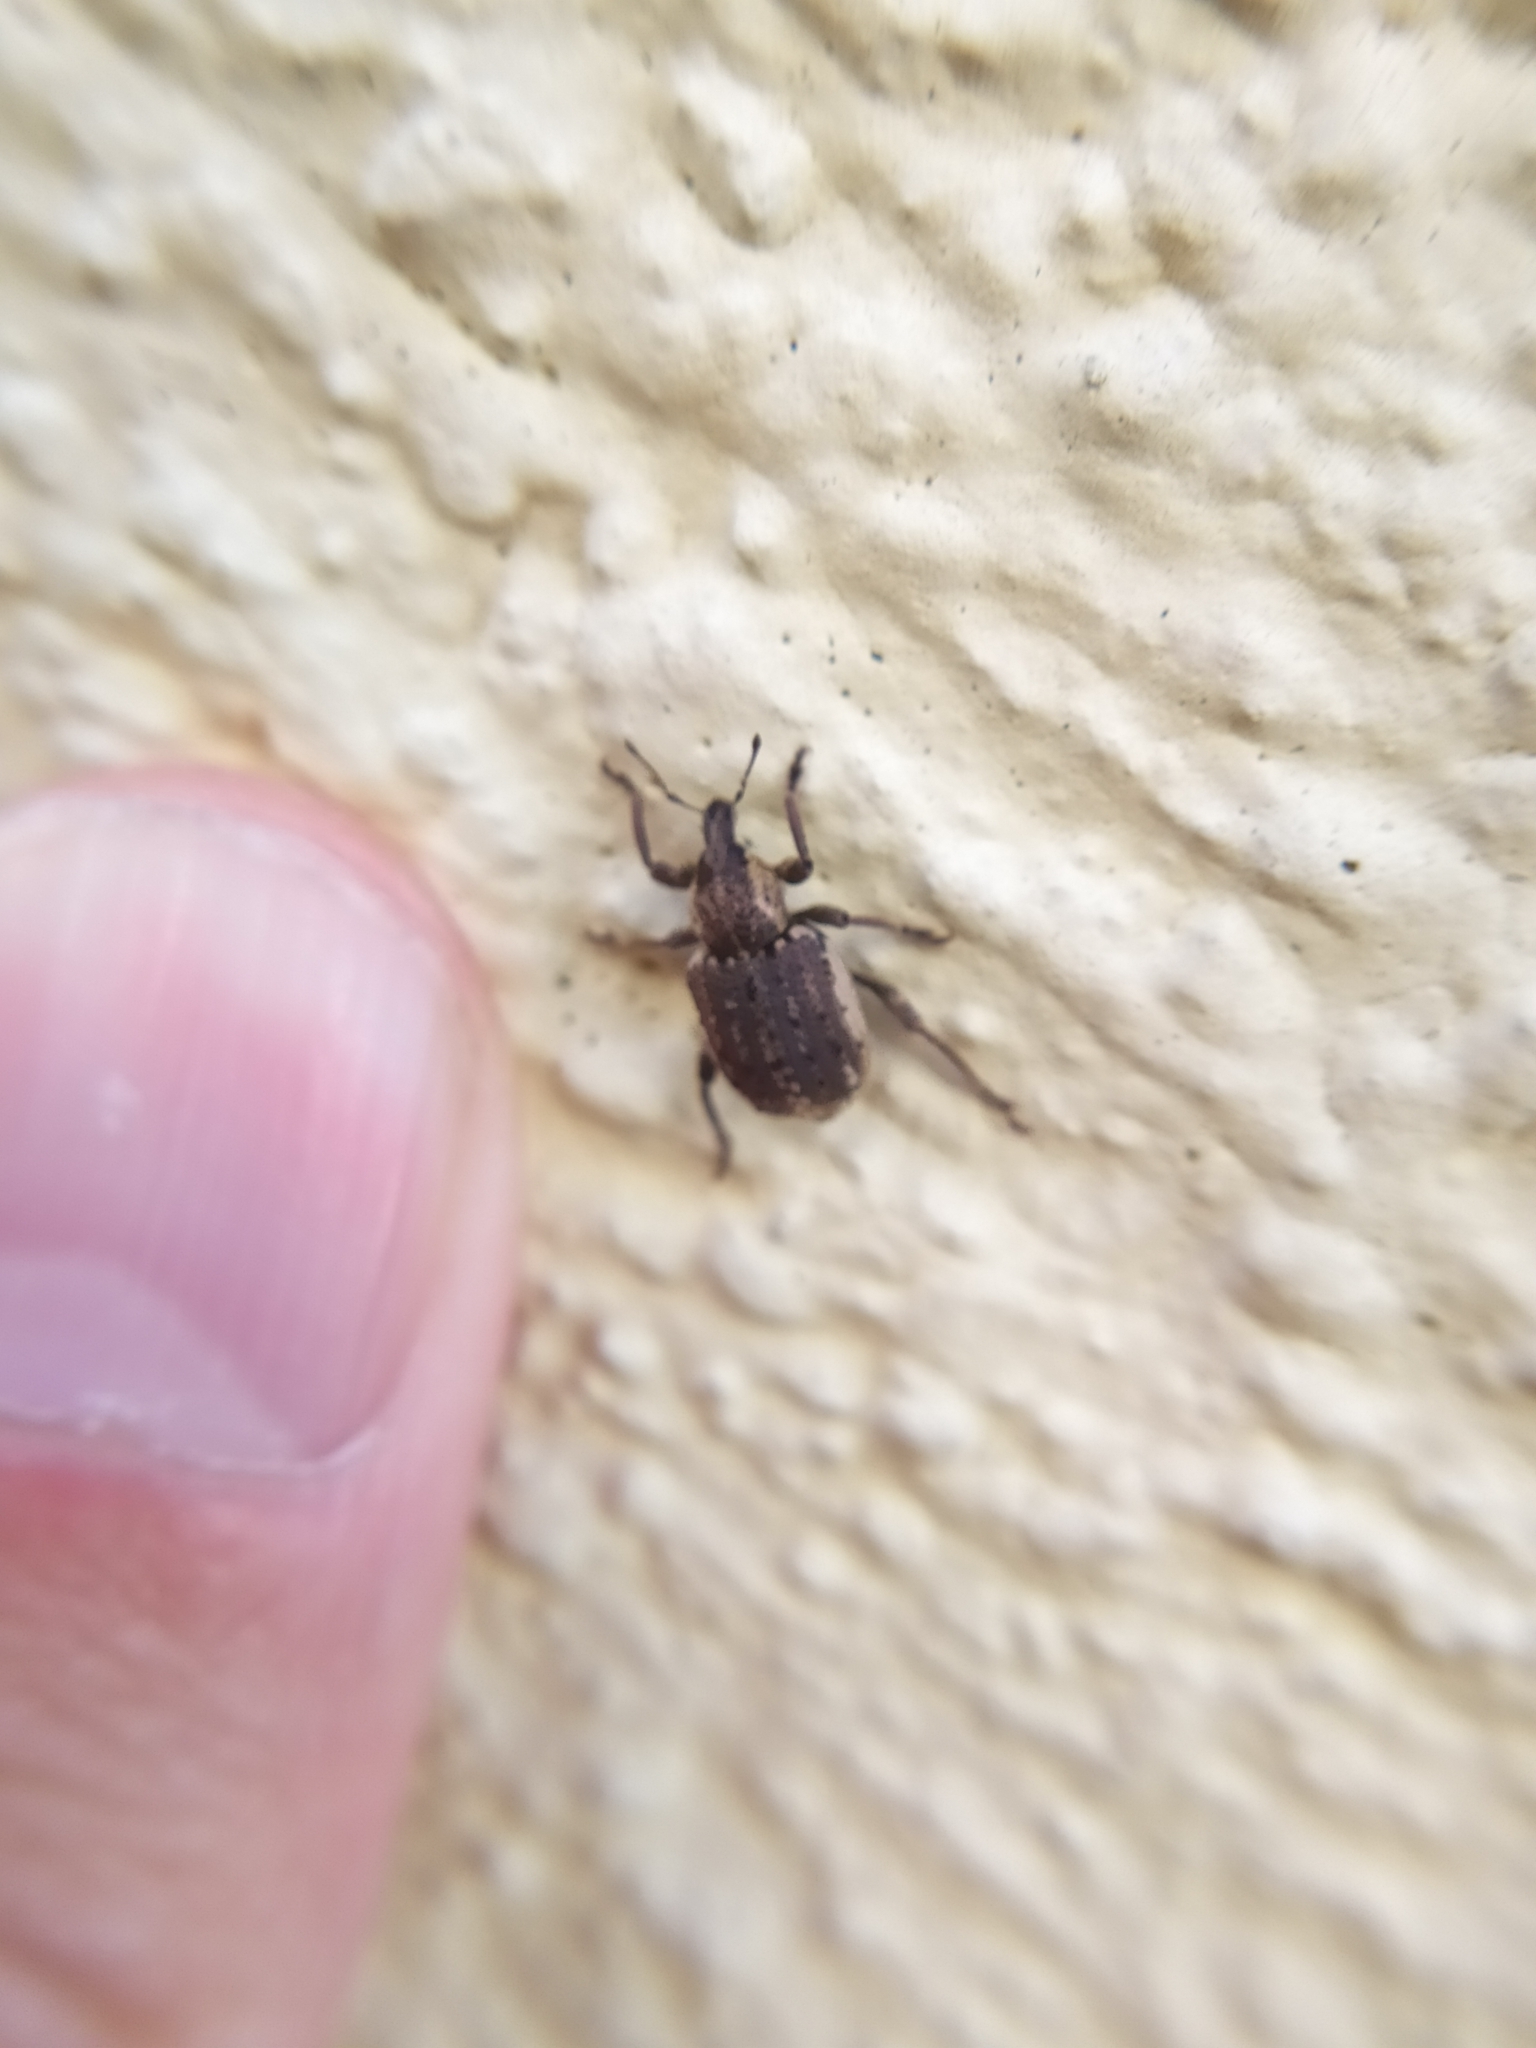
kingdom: Animalia
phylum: Arthropoda
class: Insecta
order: Coleoptera
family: Curculionidae
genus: Brachypera
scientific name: Brachypera zoilus
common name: Clover leaf weevil
